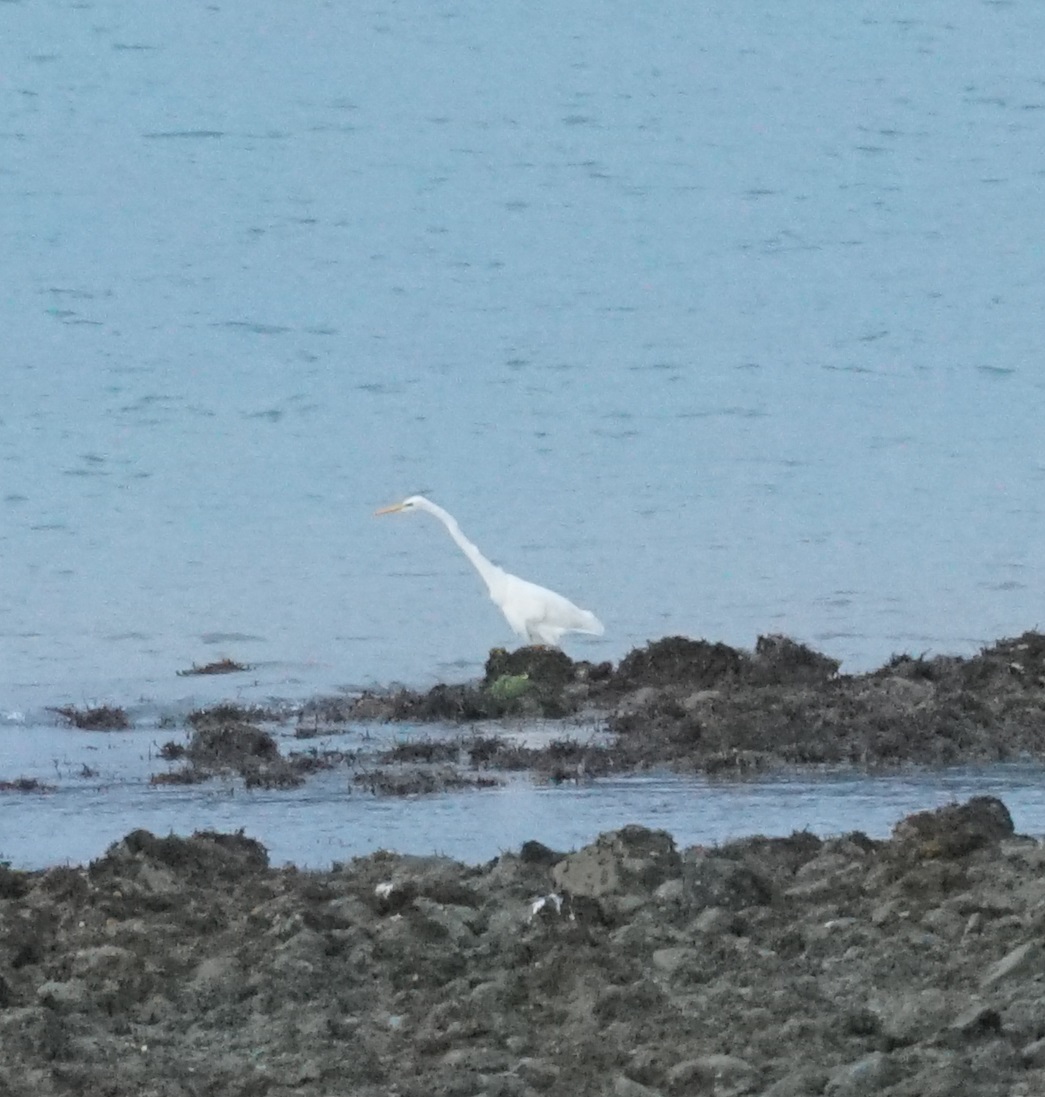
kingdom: Animalia
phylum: Chordata
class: Aves
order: Pelecaniformes
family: Ardeidae
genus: Ardea
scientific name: Ardea alba
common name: Great egret
